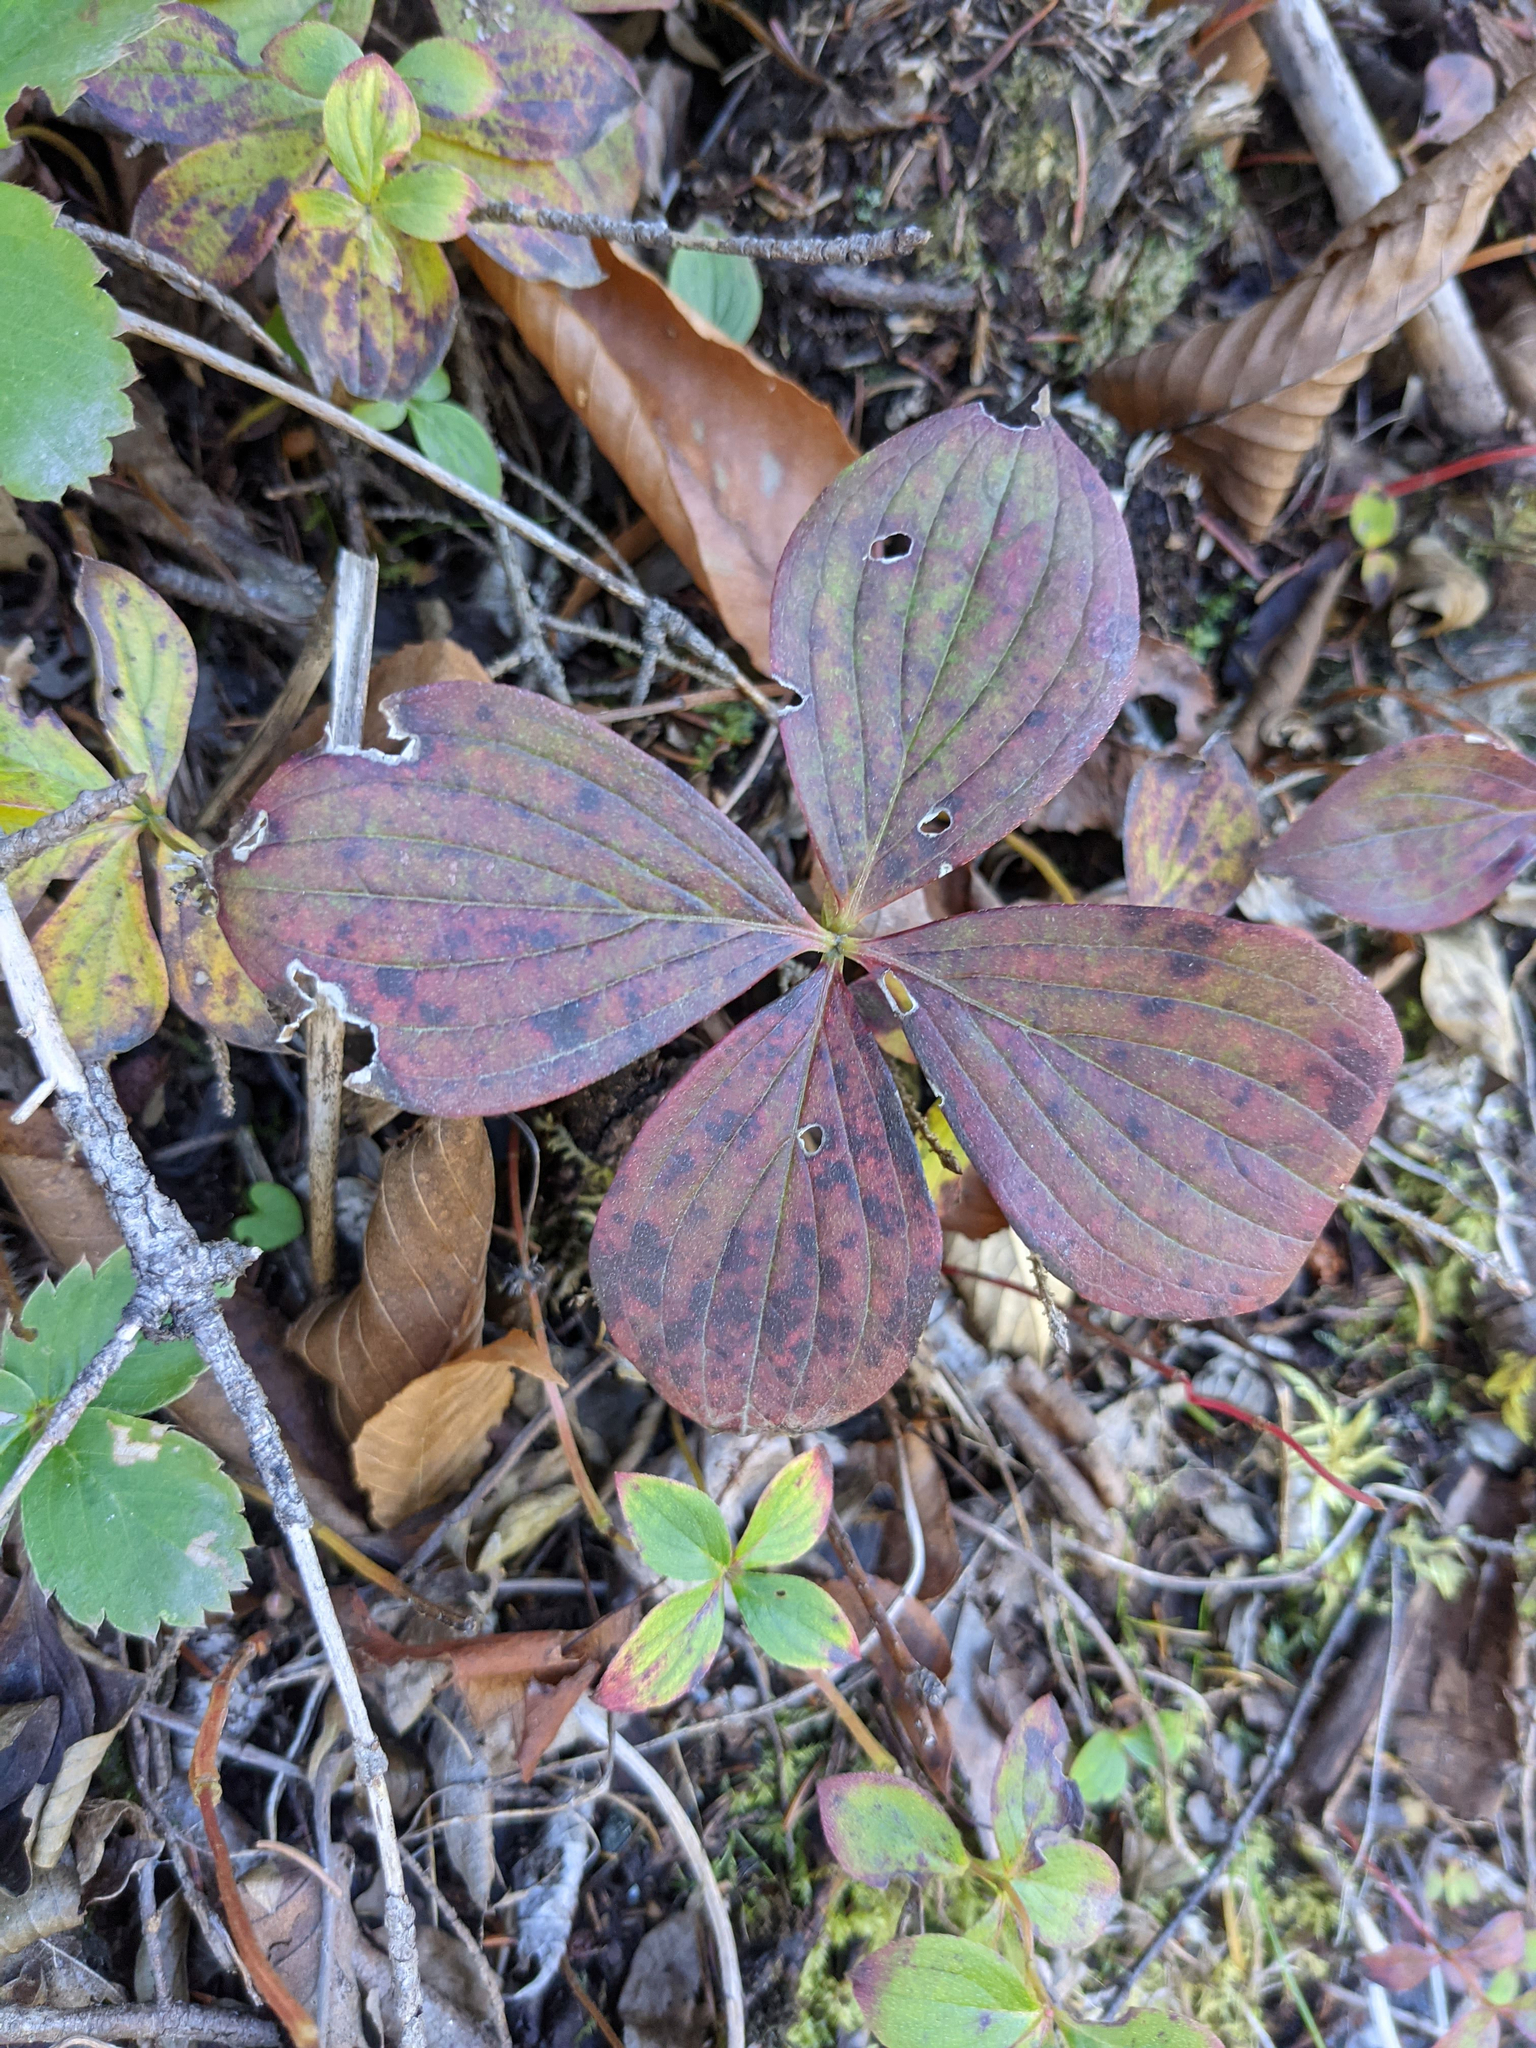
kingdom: Plantae
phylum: Tracheophyta
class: Magnoliopsida
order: Cornales
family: Cornaceae
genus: Cornus
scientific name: Cornus canadensis
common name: Creeping dogwood
